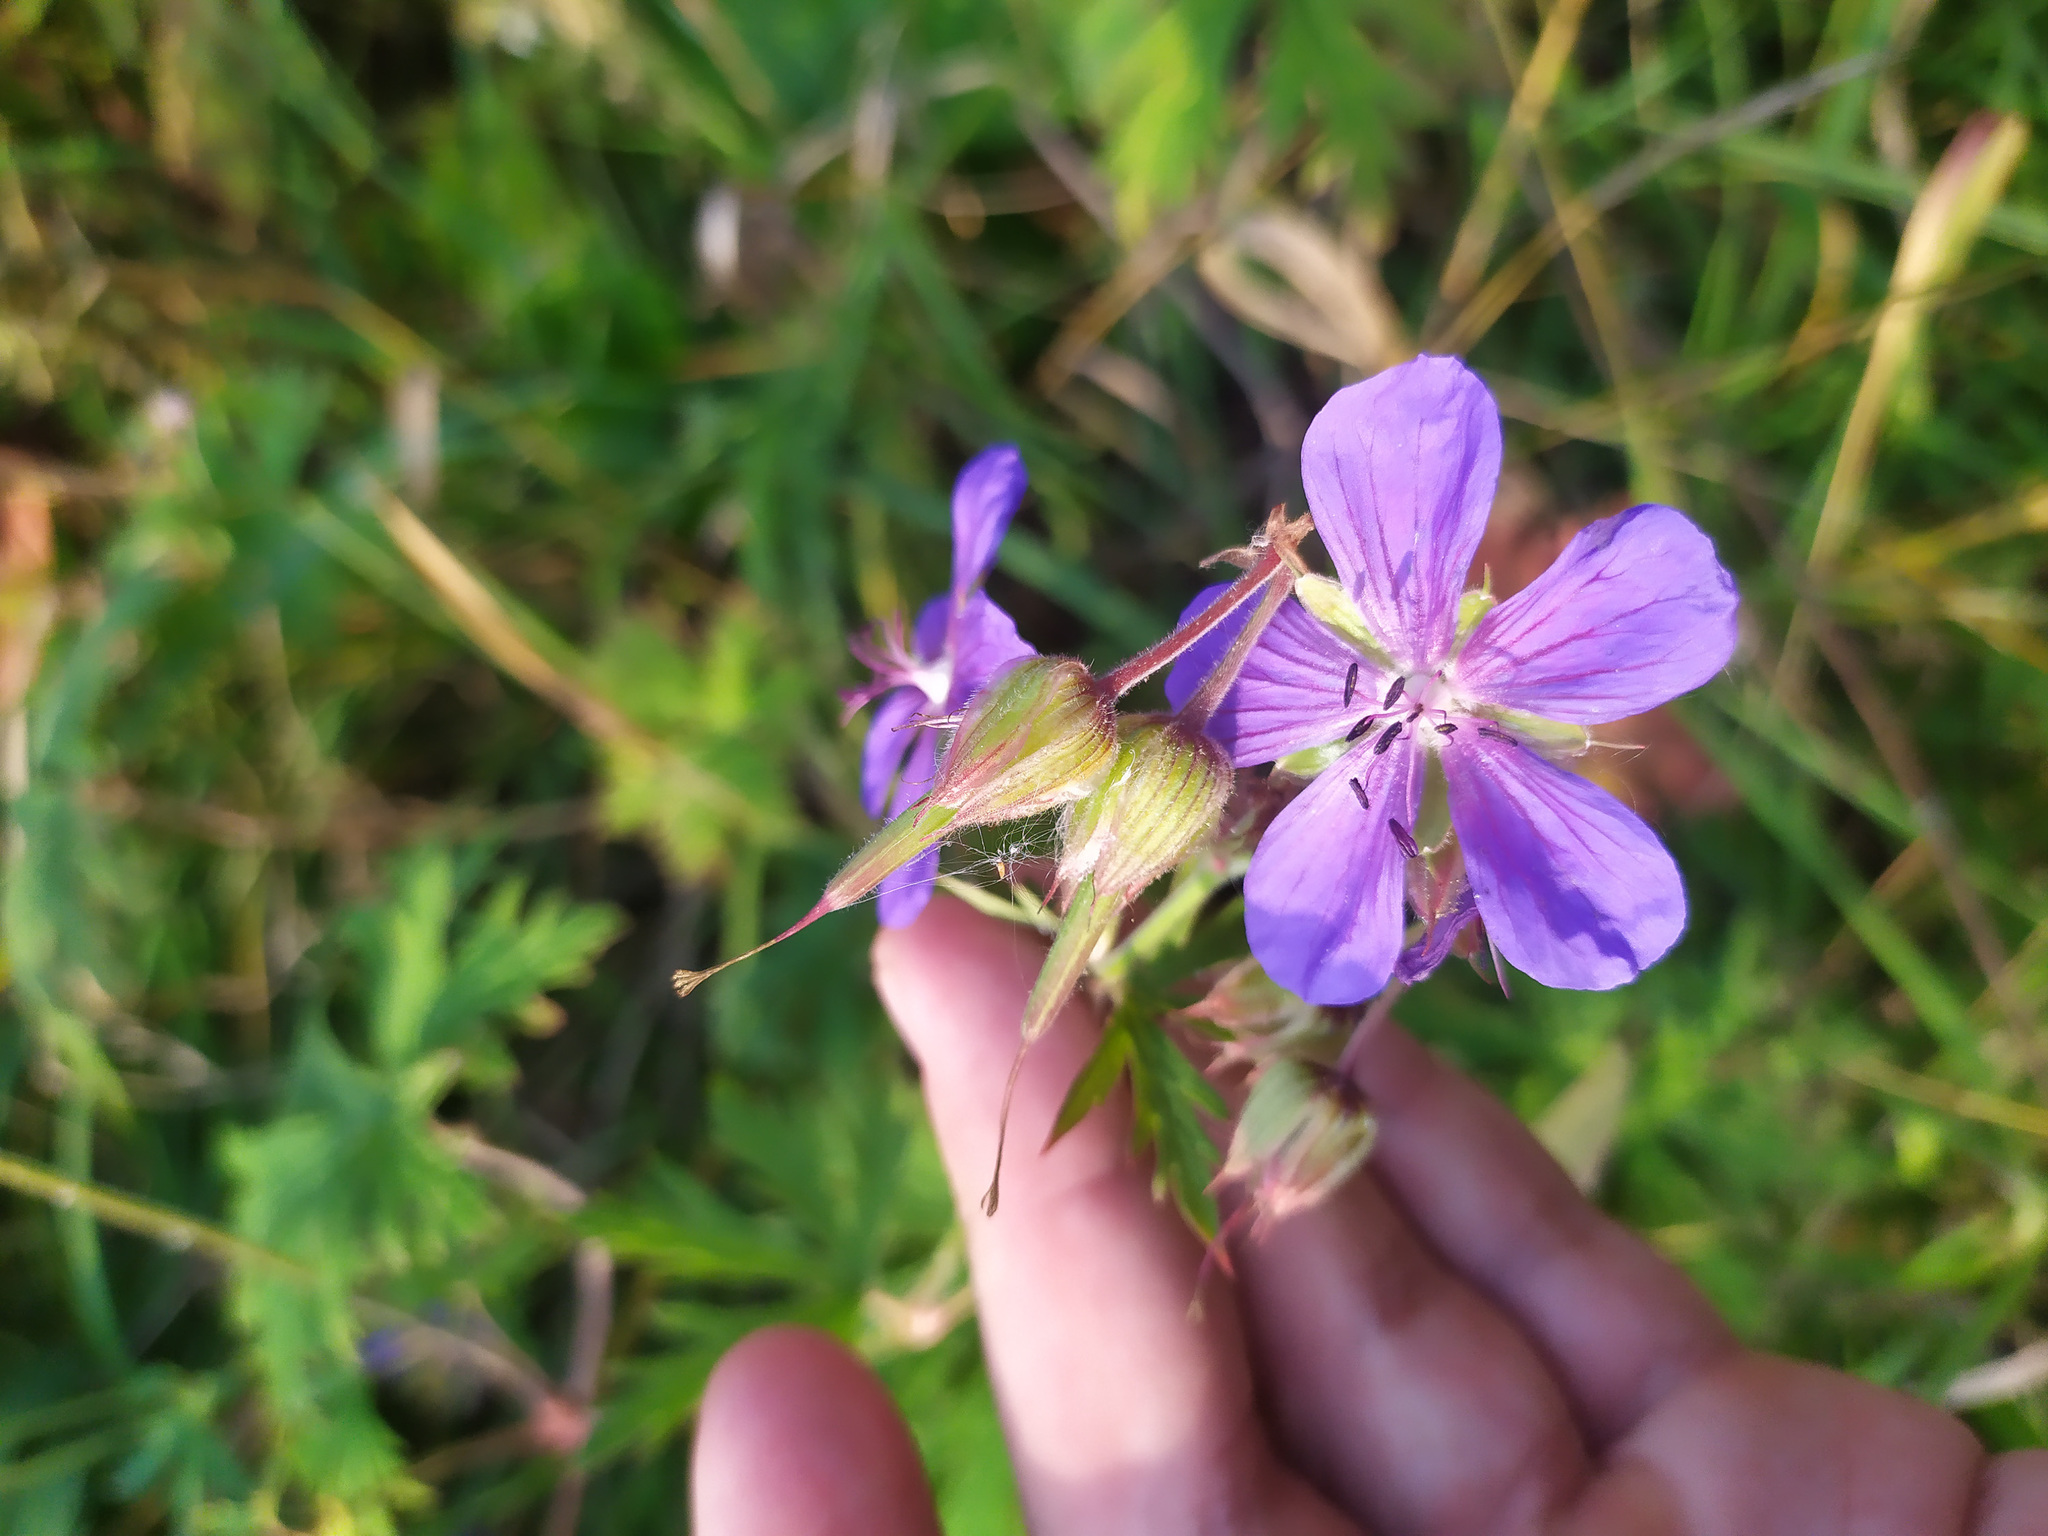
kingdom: Plantae
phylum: Tracheophyta
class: Magnoliopsida
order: Geraniales
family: Geraniaceae
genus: Geranium
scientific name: Geranium pratense
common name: Meadow crane's-bill
